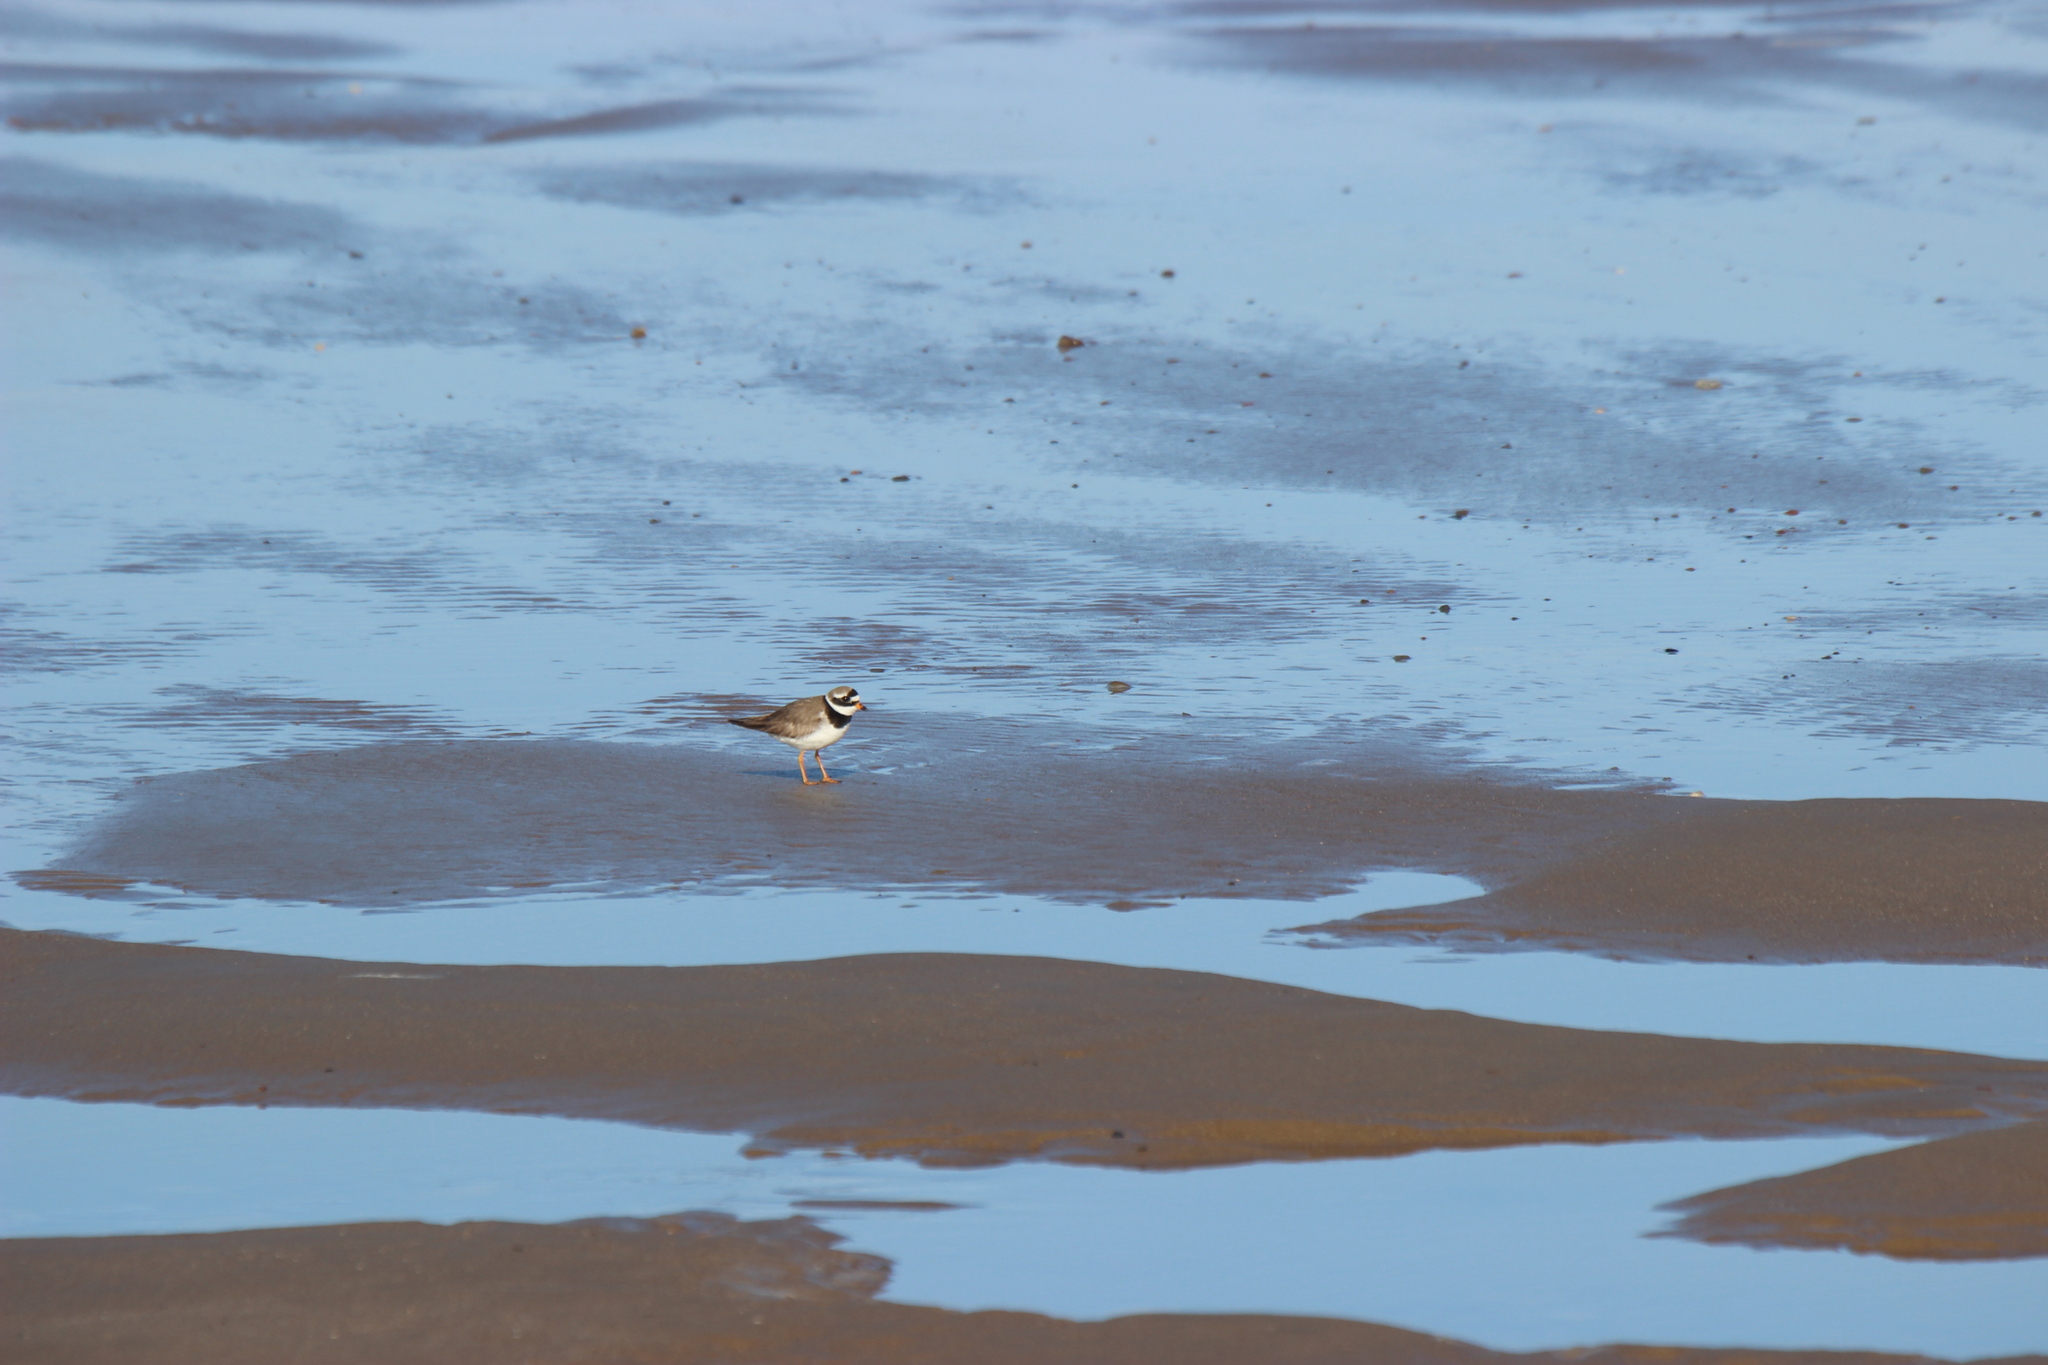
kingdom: Animalia
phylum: Chordata
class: Aves
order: Charadriiformes
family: Charadriidae
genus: Charadrius
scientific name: Charadrius hiaticula
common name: Common ringed plover
